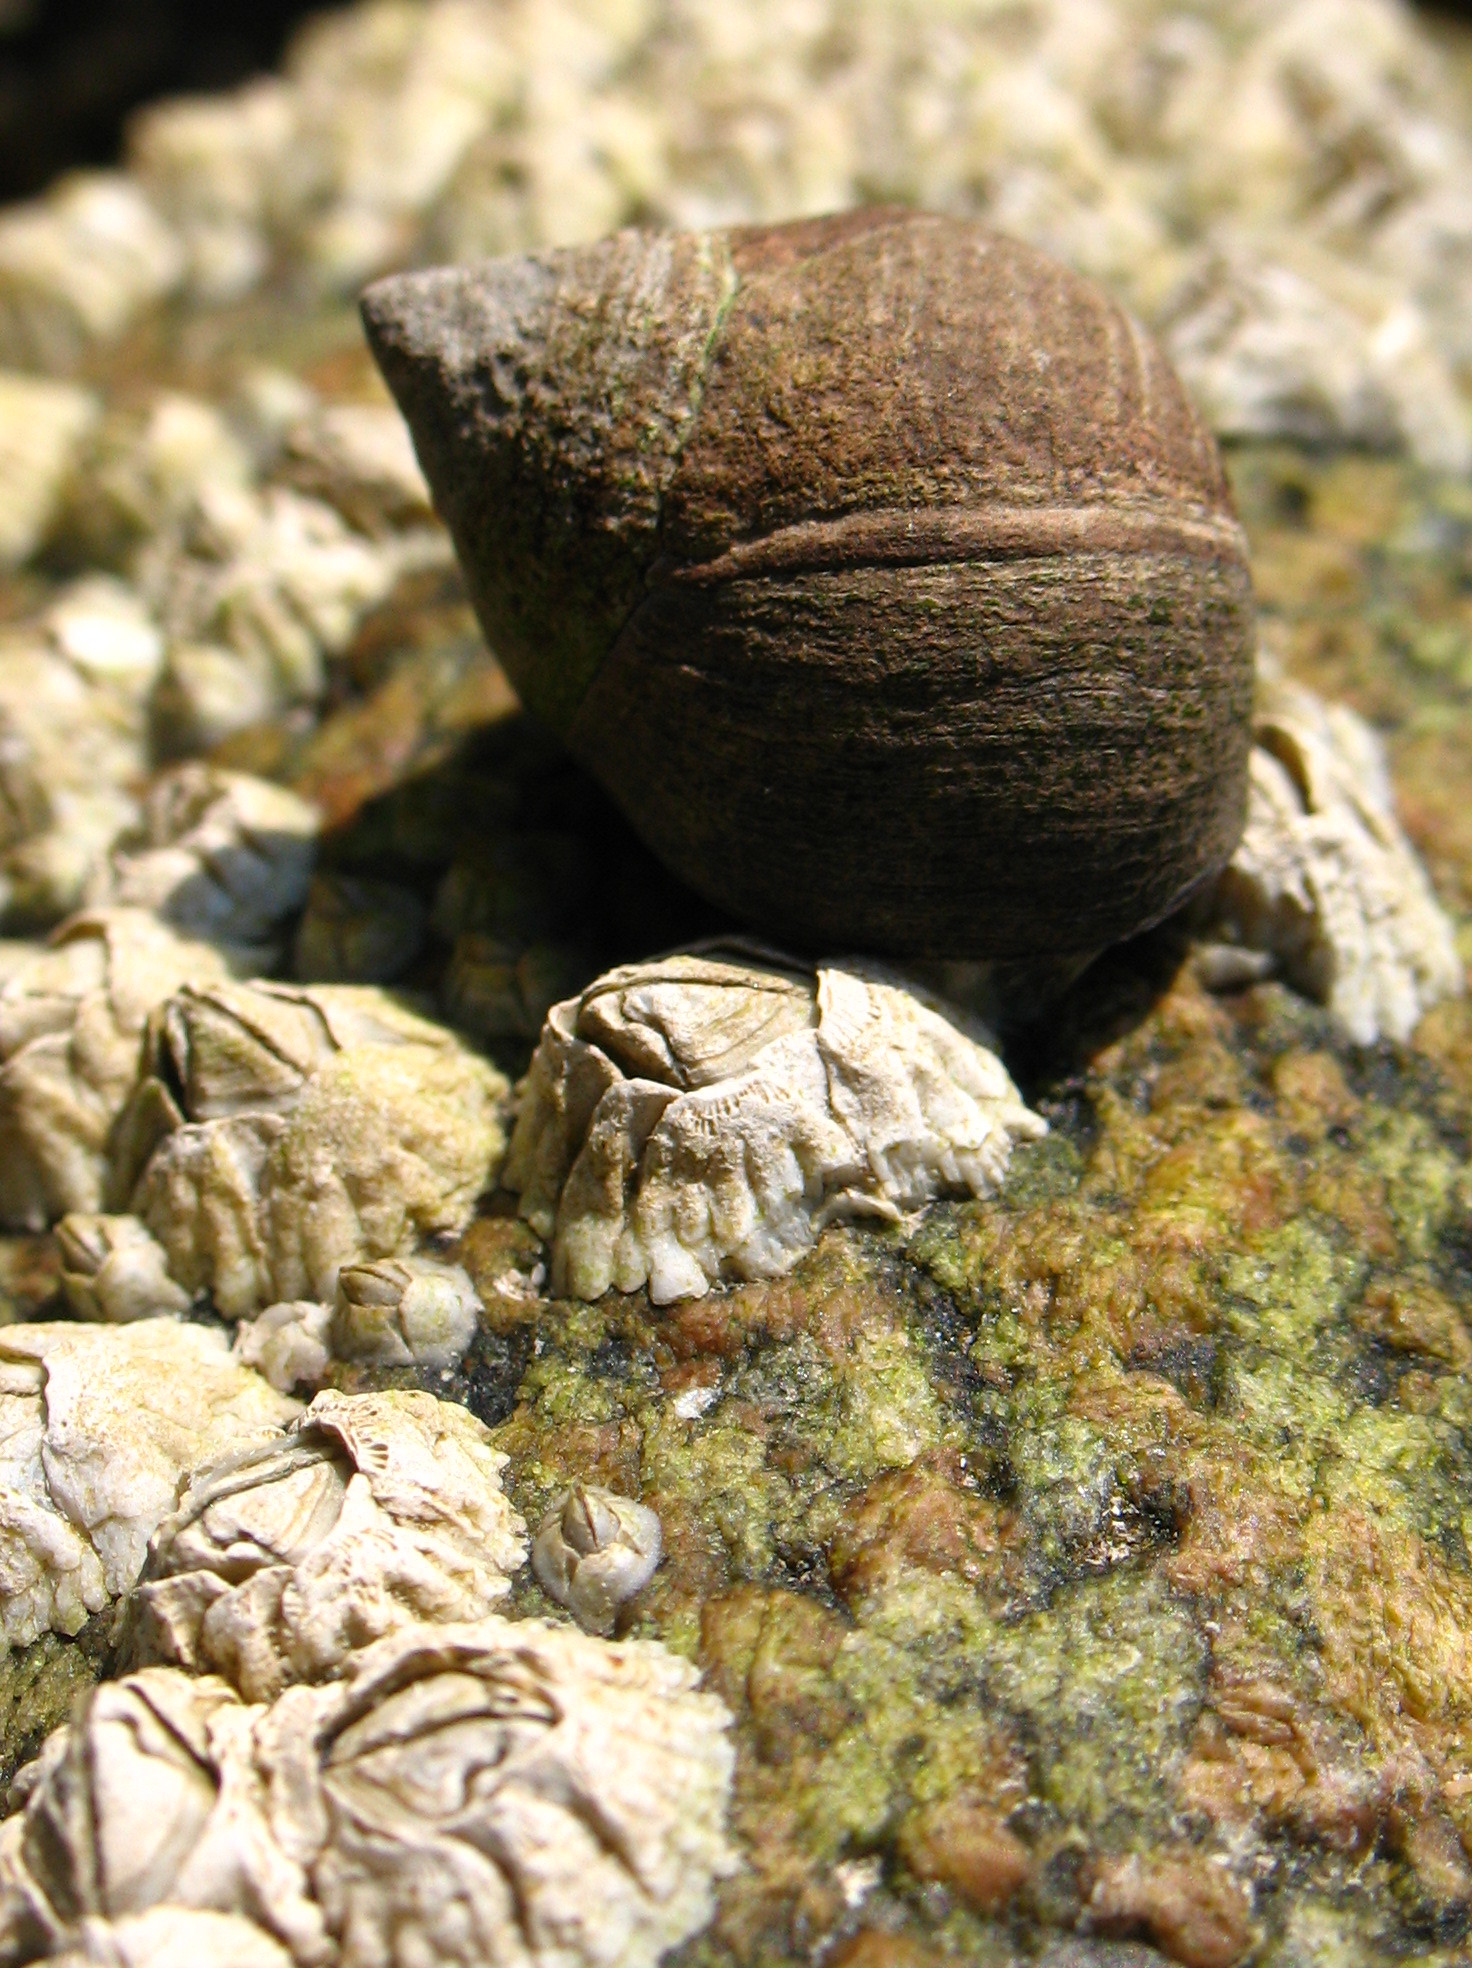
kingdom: Animalia
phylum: Arthropoda
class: Maxillopoda
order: Sessilia
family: Archaeobalanidae
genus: Semibalanus
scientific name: Semibalanus balanoides
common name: Acorn barnacle
